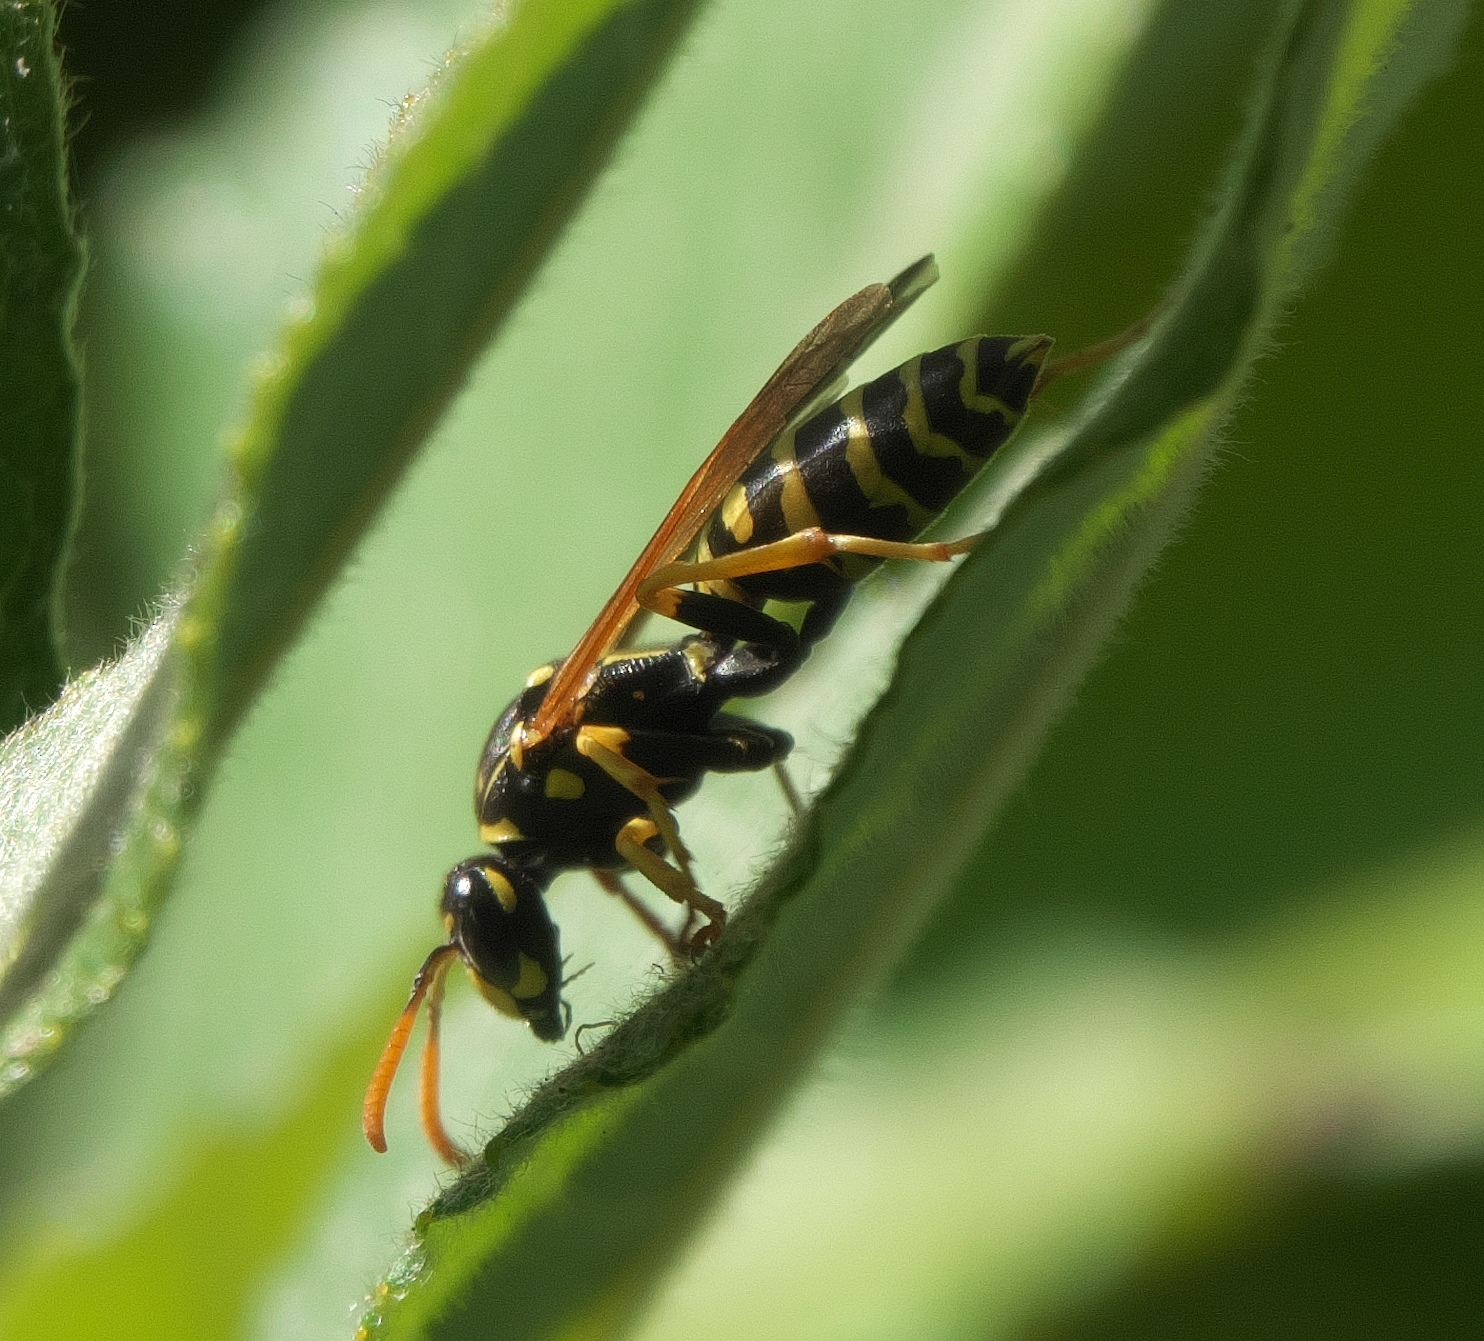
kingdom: Animalia
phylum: Arthropoda
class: Insecta
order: Hymenoptera
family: Eumenidae
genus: Polistes
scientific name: Polistes dominula
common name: Paper wasp
